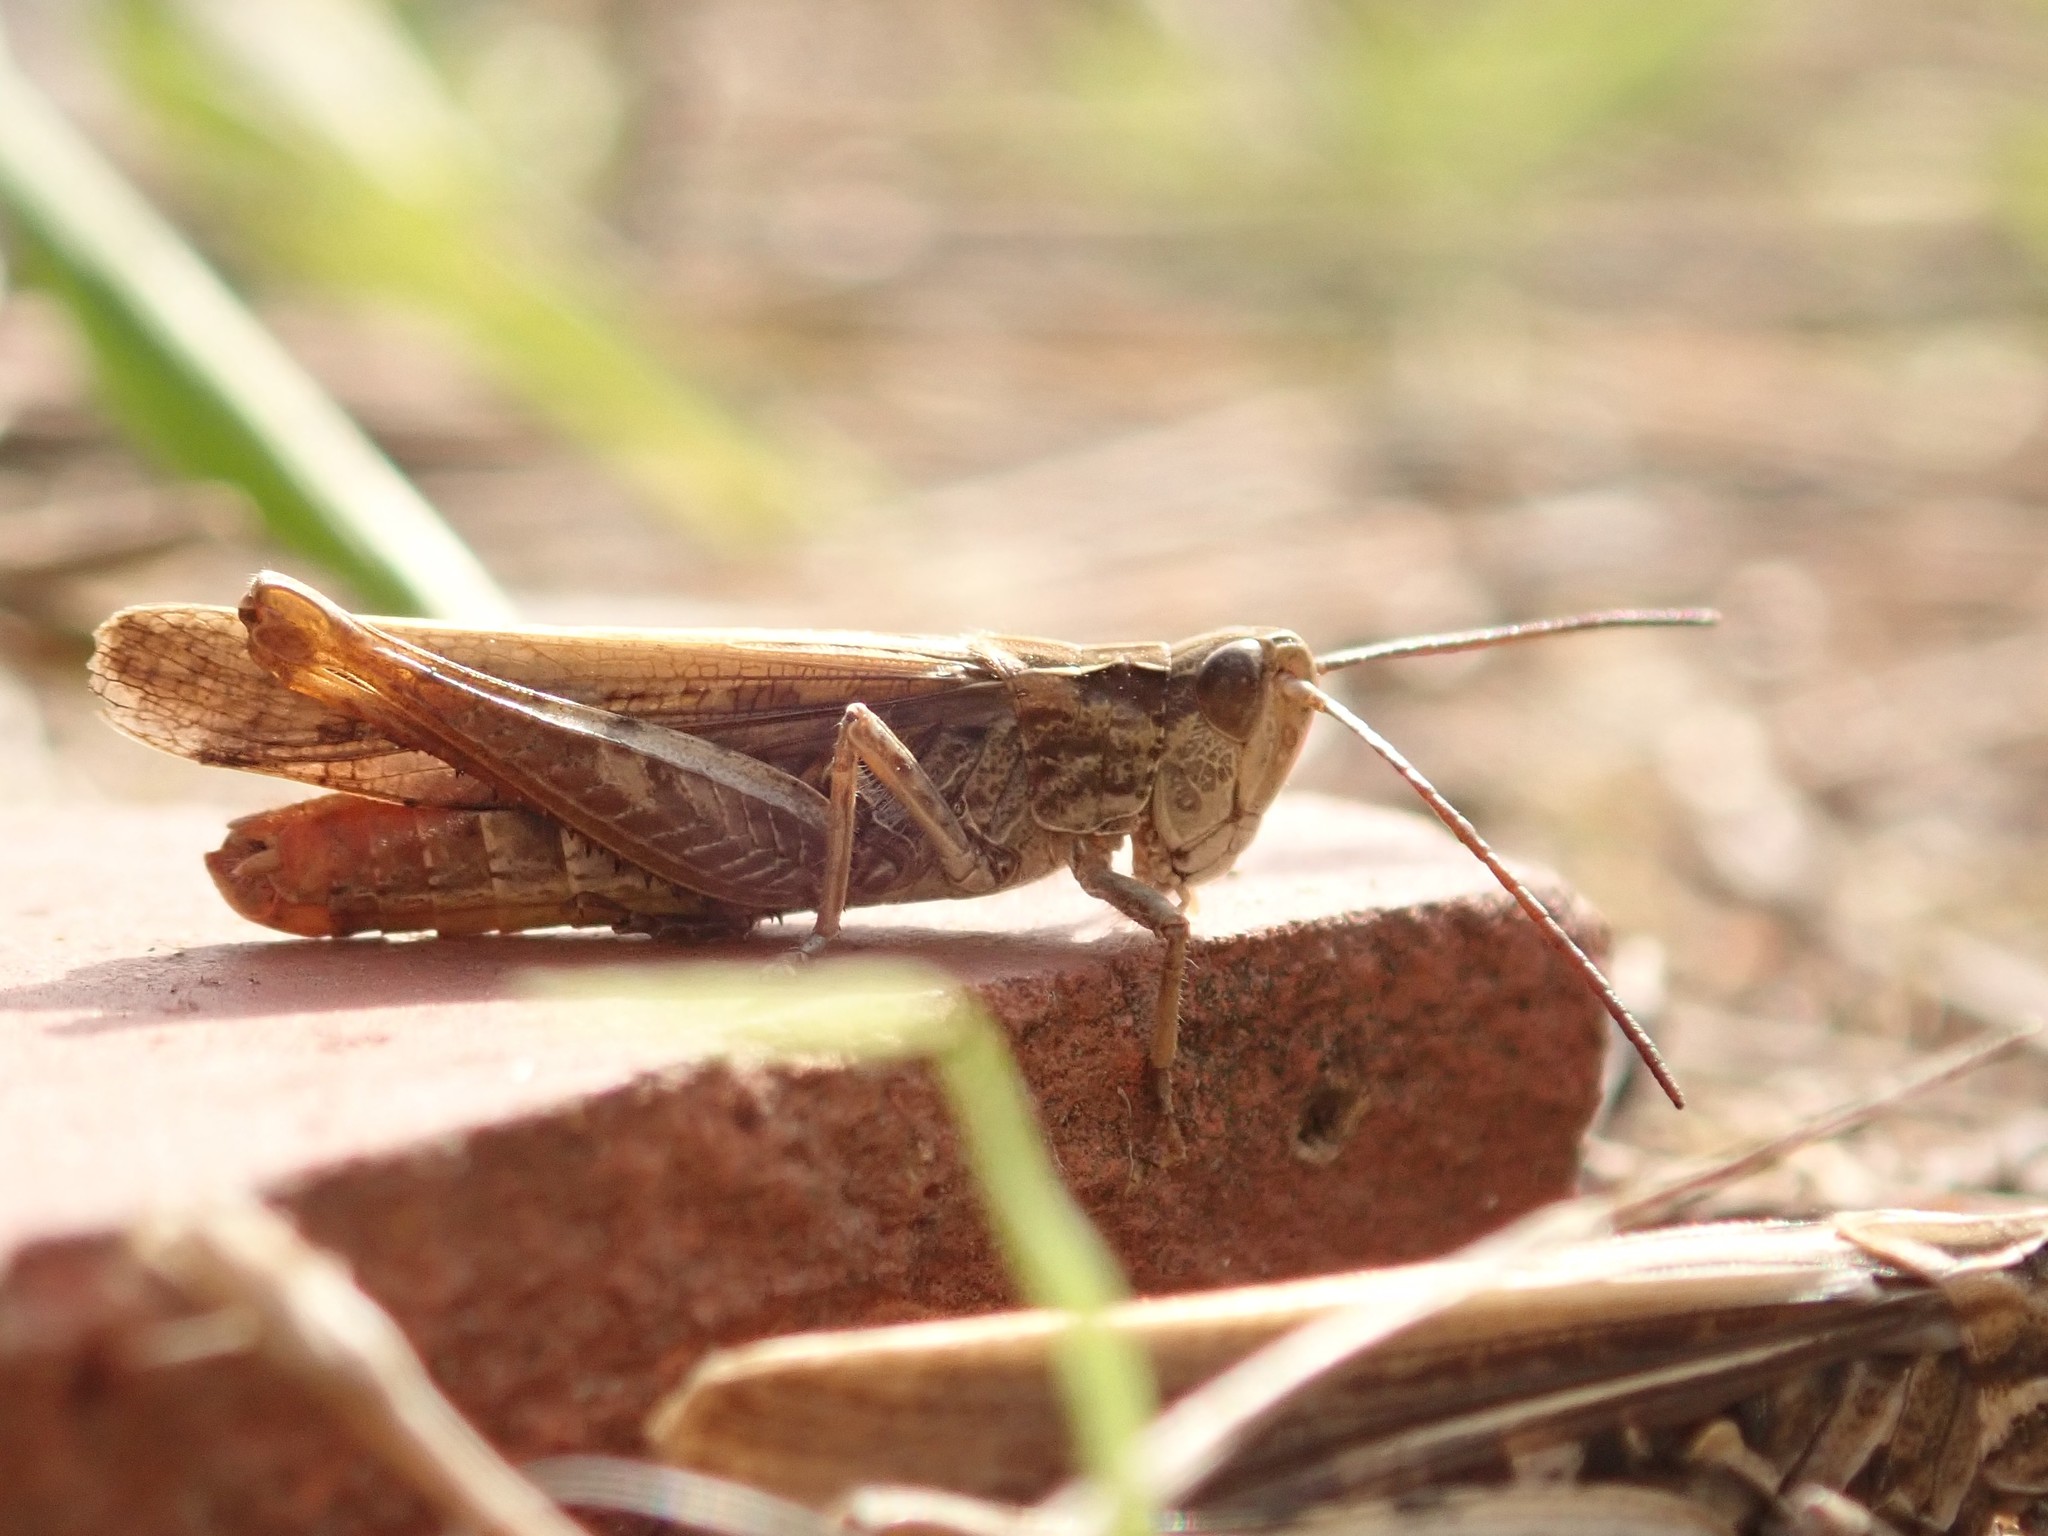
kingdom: Animalia
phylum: Arthropoda
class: Insecta
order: Orthoptera
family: Acrididae
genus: Chorthippus
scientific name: Chorthippus brunneus
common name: Field grasshopper
